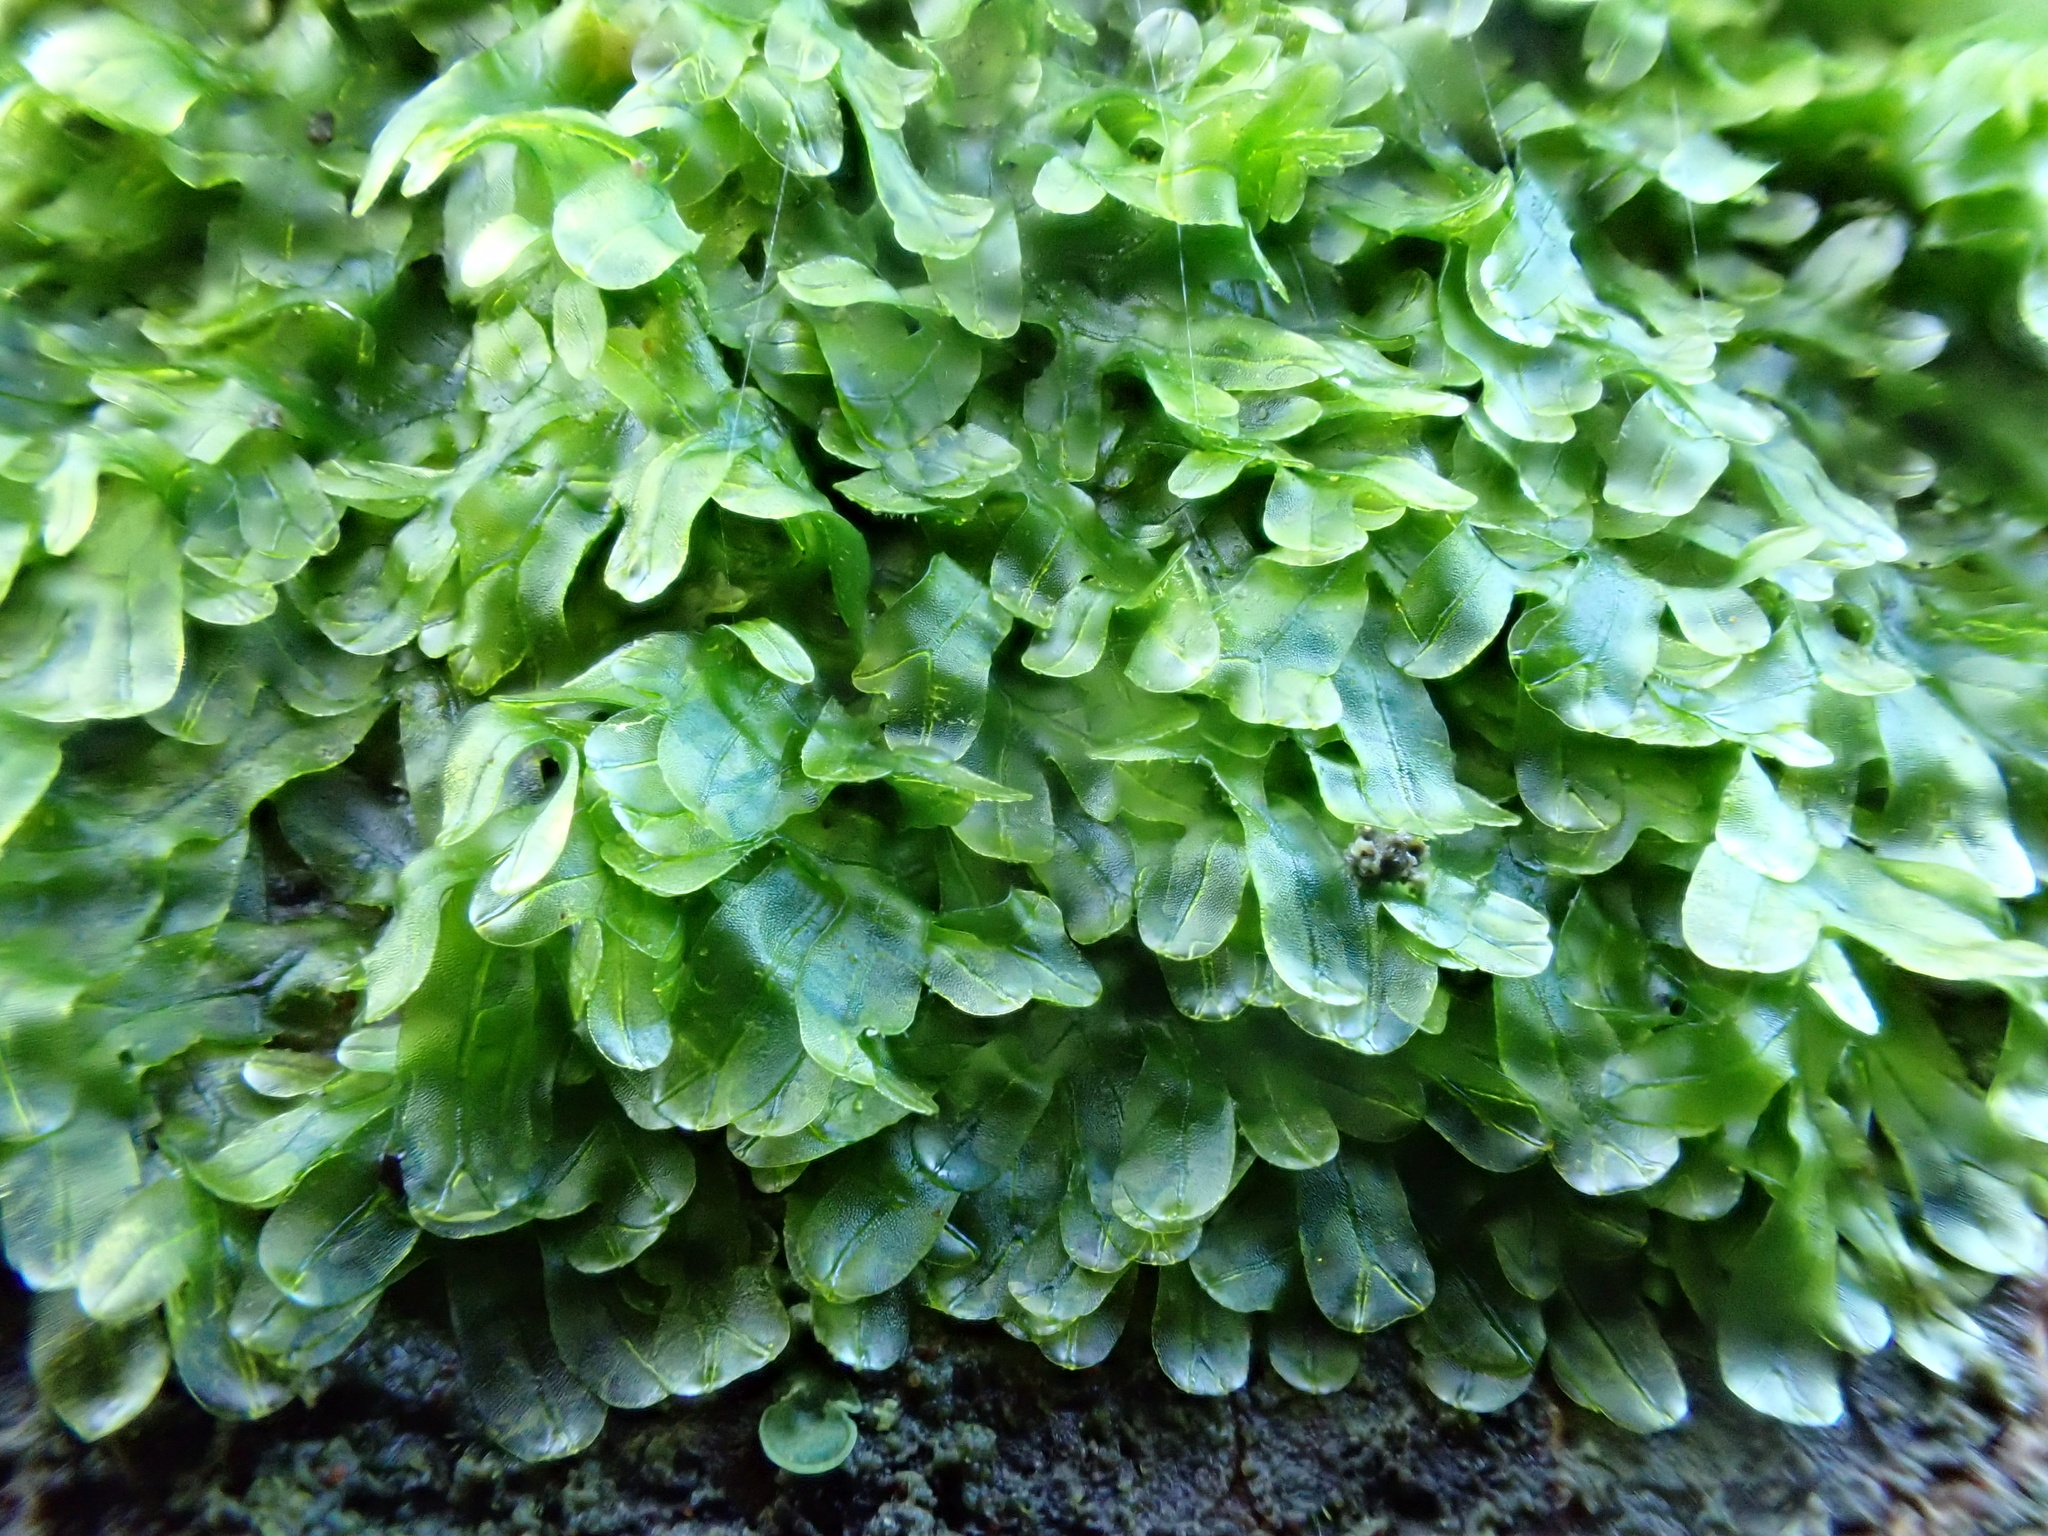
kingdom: Plantae
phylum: Marchantiophyta
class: Jungermanniopsida
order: Metzgeriales
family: Metzgeriaceae
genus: Metzgeria
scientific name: Metzgeria furcata
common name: Forked veilwort
